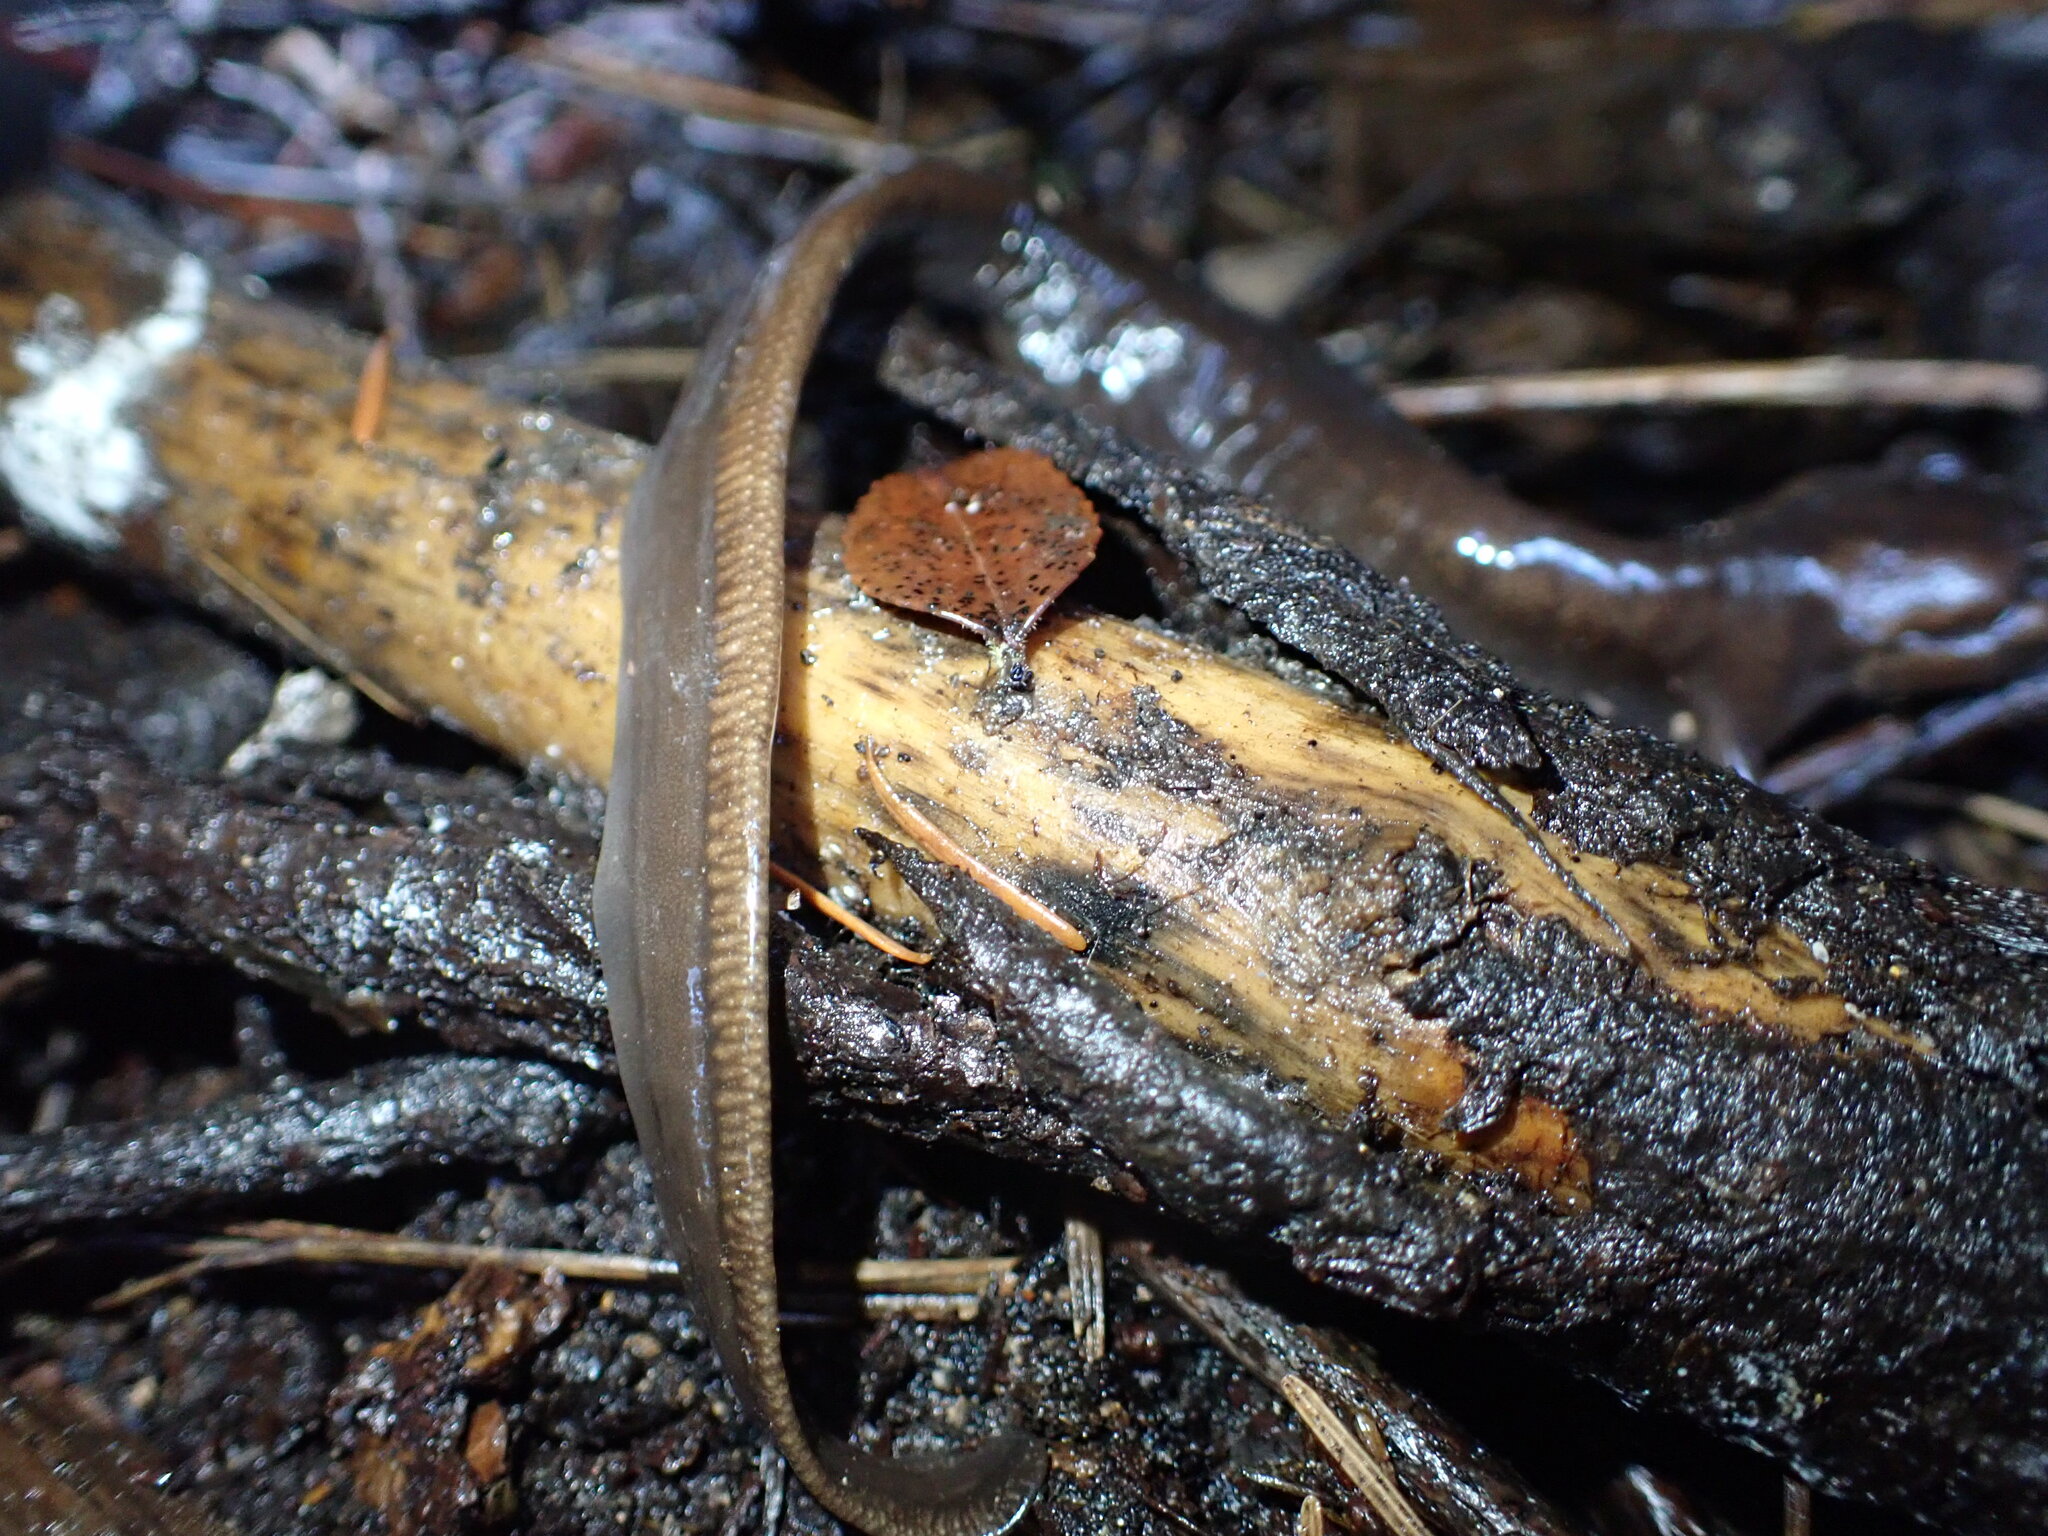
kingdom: Animalia
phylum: Chordata
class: Amphibia
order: Caudata
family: Ambystomatidae
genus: Ambystoma
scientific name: Ambystoma gracile
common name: Northwestern salamander
